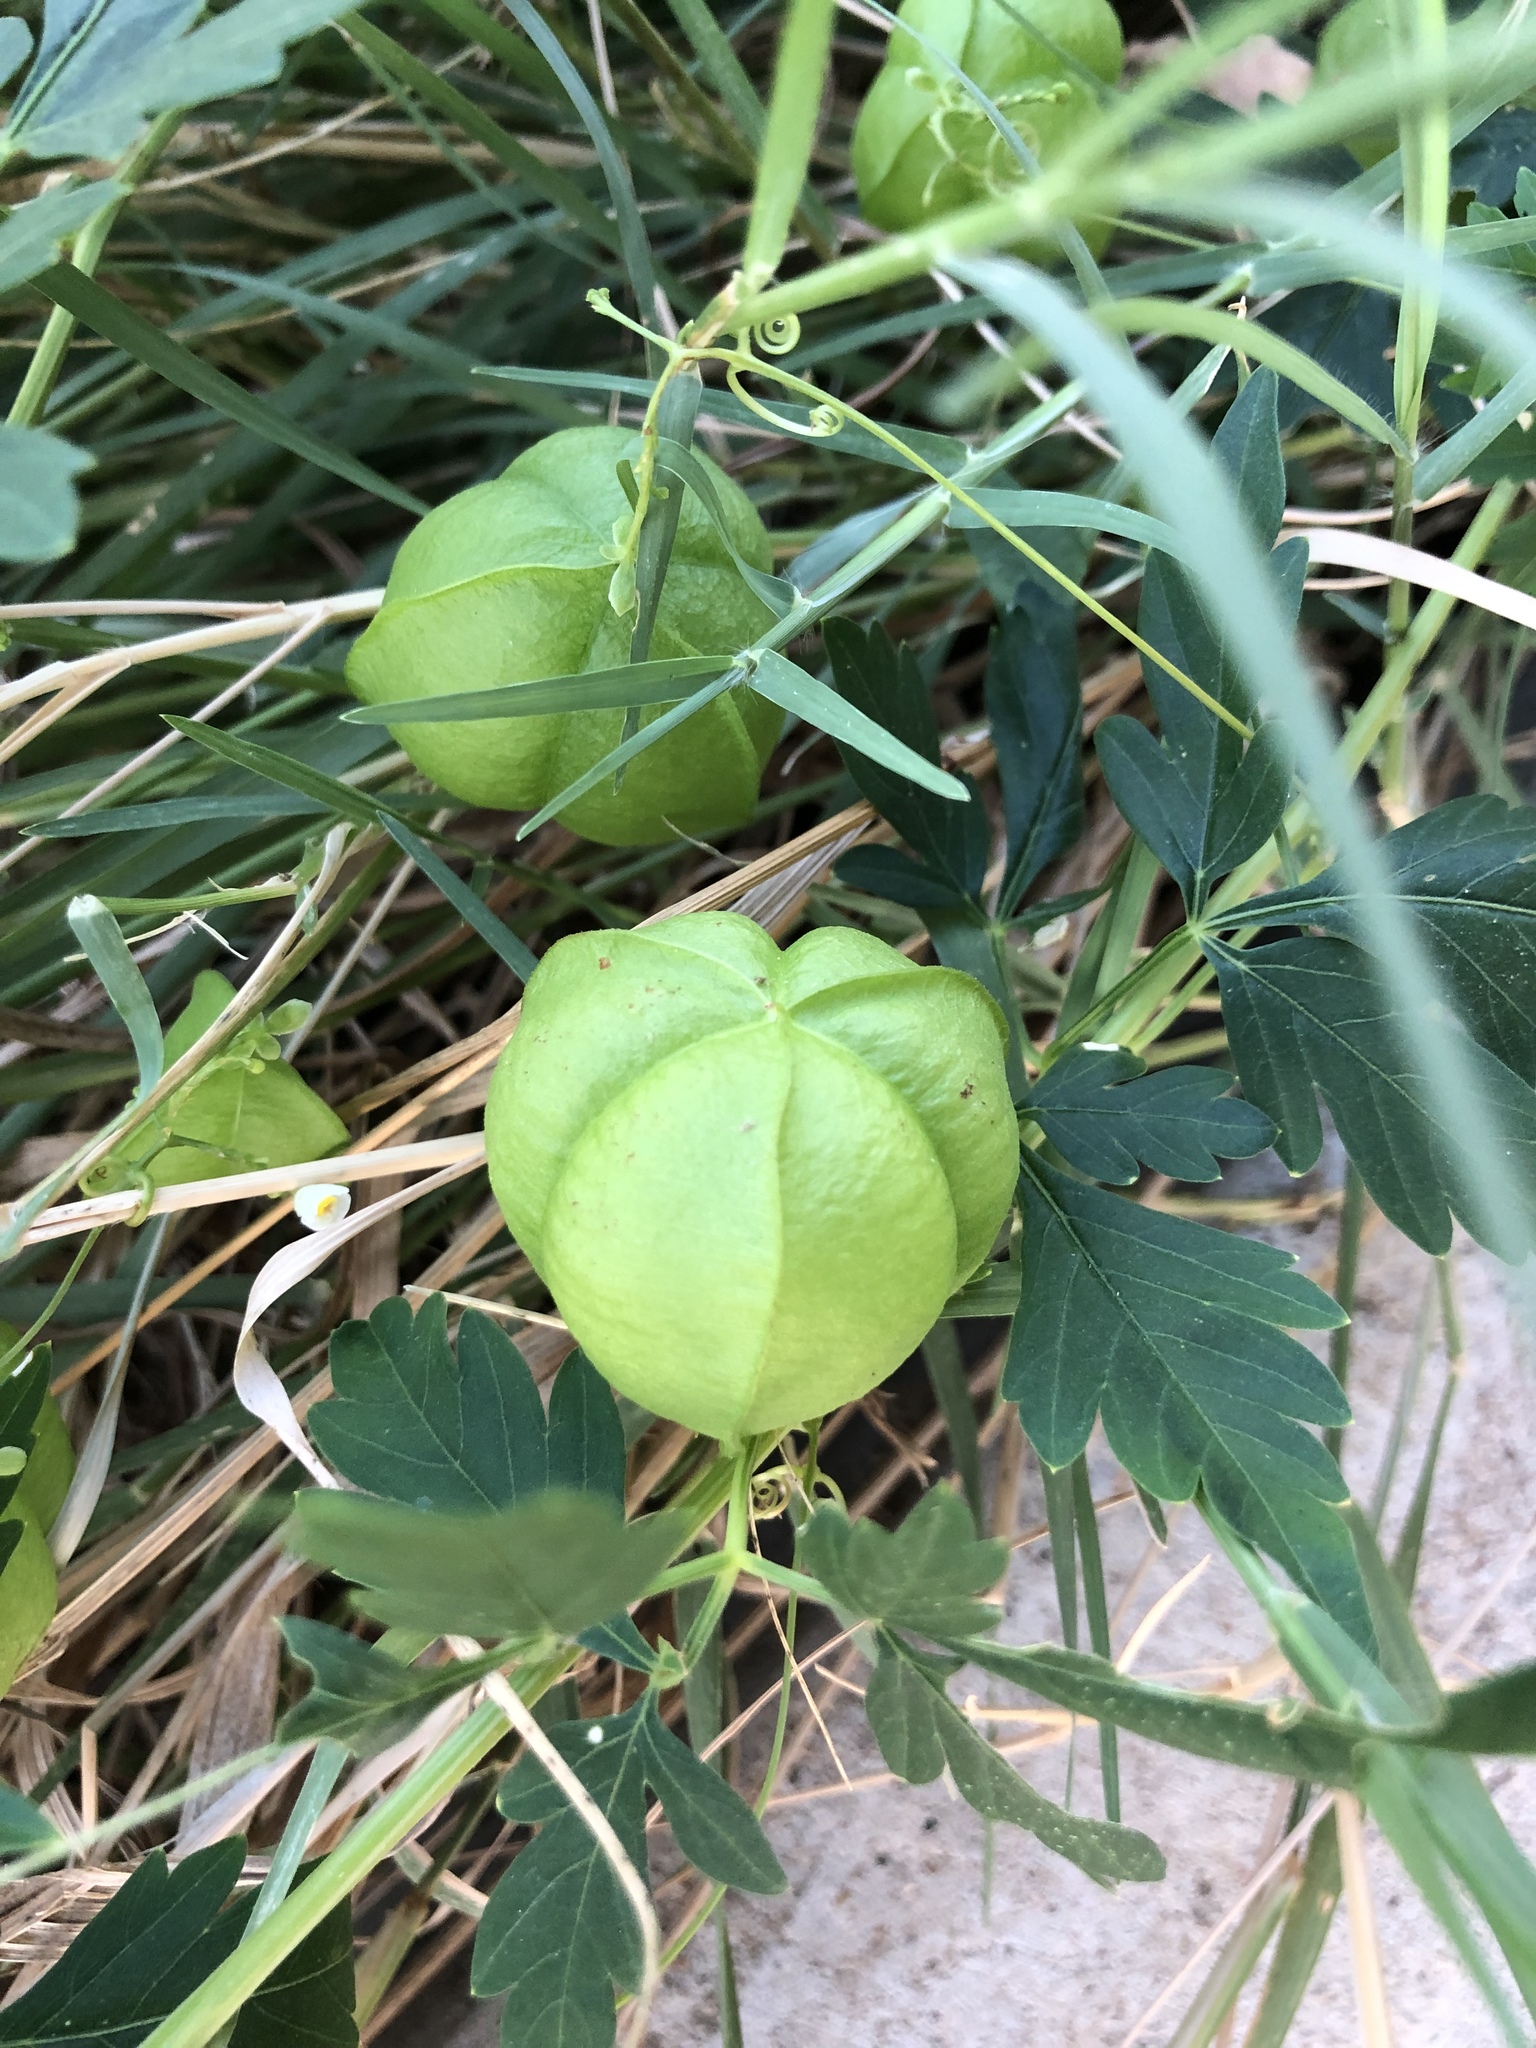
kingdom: Plantae
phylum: Tracheophyta
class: Magnoliopsida
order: Sapindales
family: Sapindaceae
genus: Cardiospermum
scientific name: Cardiospermum halicacabum
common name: Balloon vine
